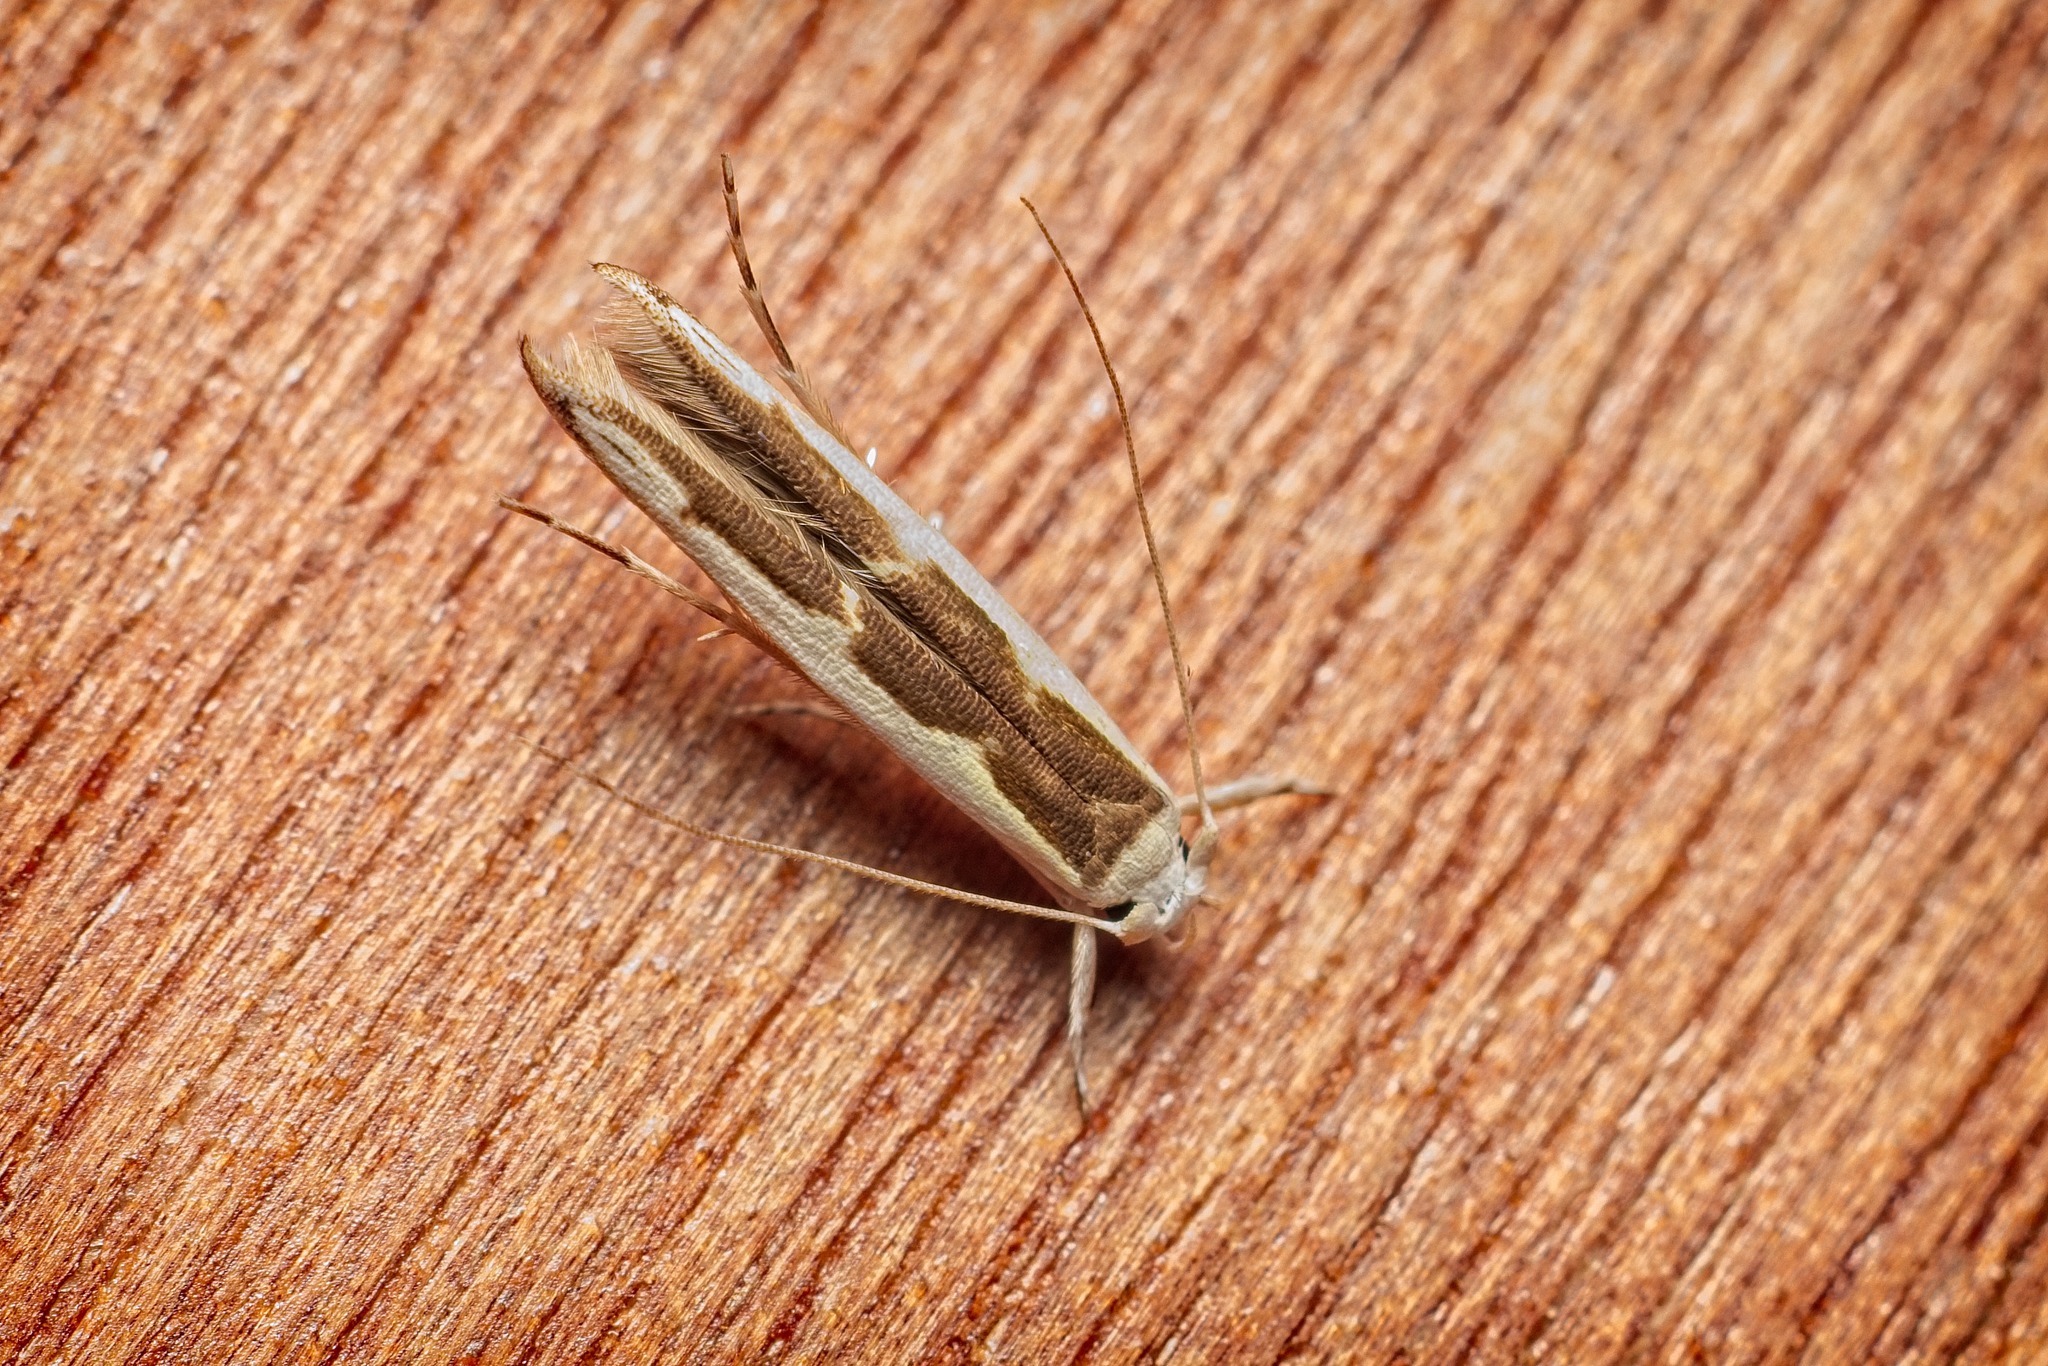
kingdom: Animalia
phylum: Arthropoda
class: Insecta
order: Lepidoptera
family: Roeslerstammiidae
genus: Vanicela
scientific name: Vanicela disjunctella
